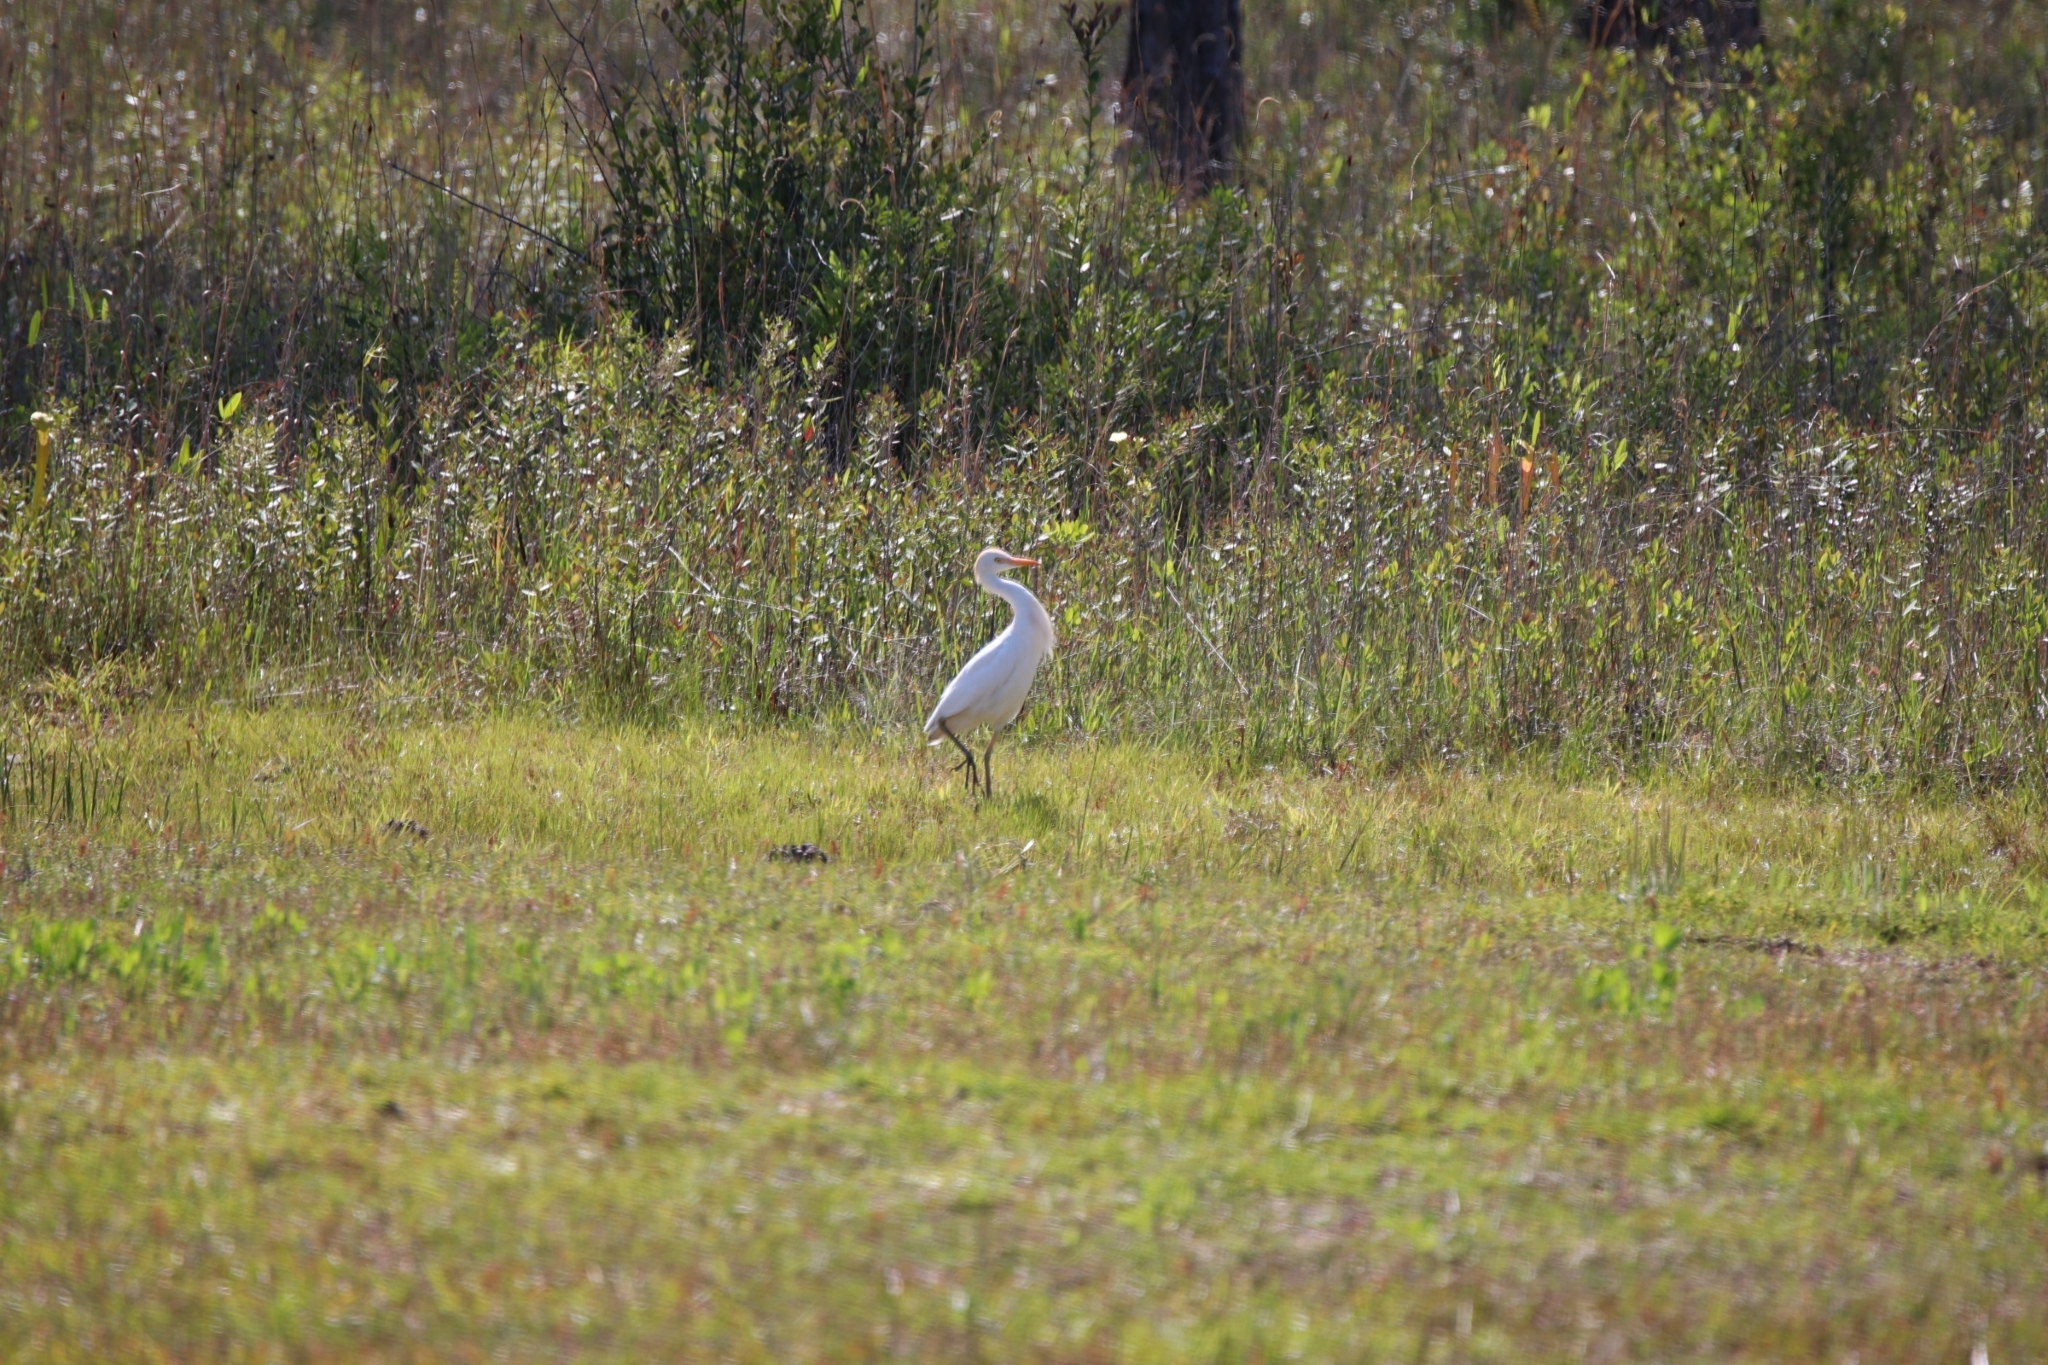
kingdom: Animalia
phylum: Chordata
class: Aves
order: Pelecaniformes
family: Ardeidae
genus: Bubulcus
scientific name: Bubulcus ibis
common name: Cattle egret
